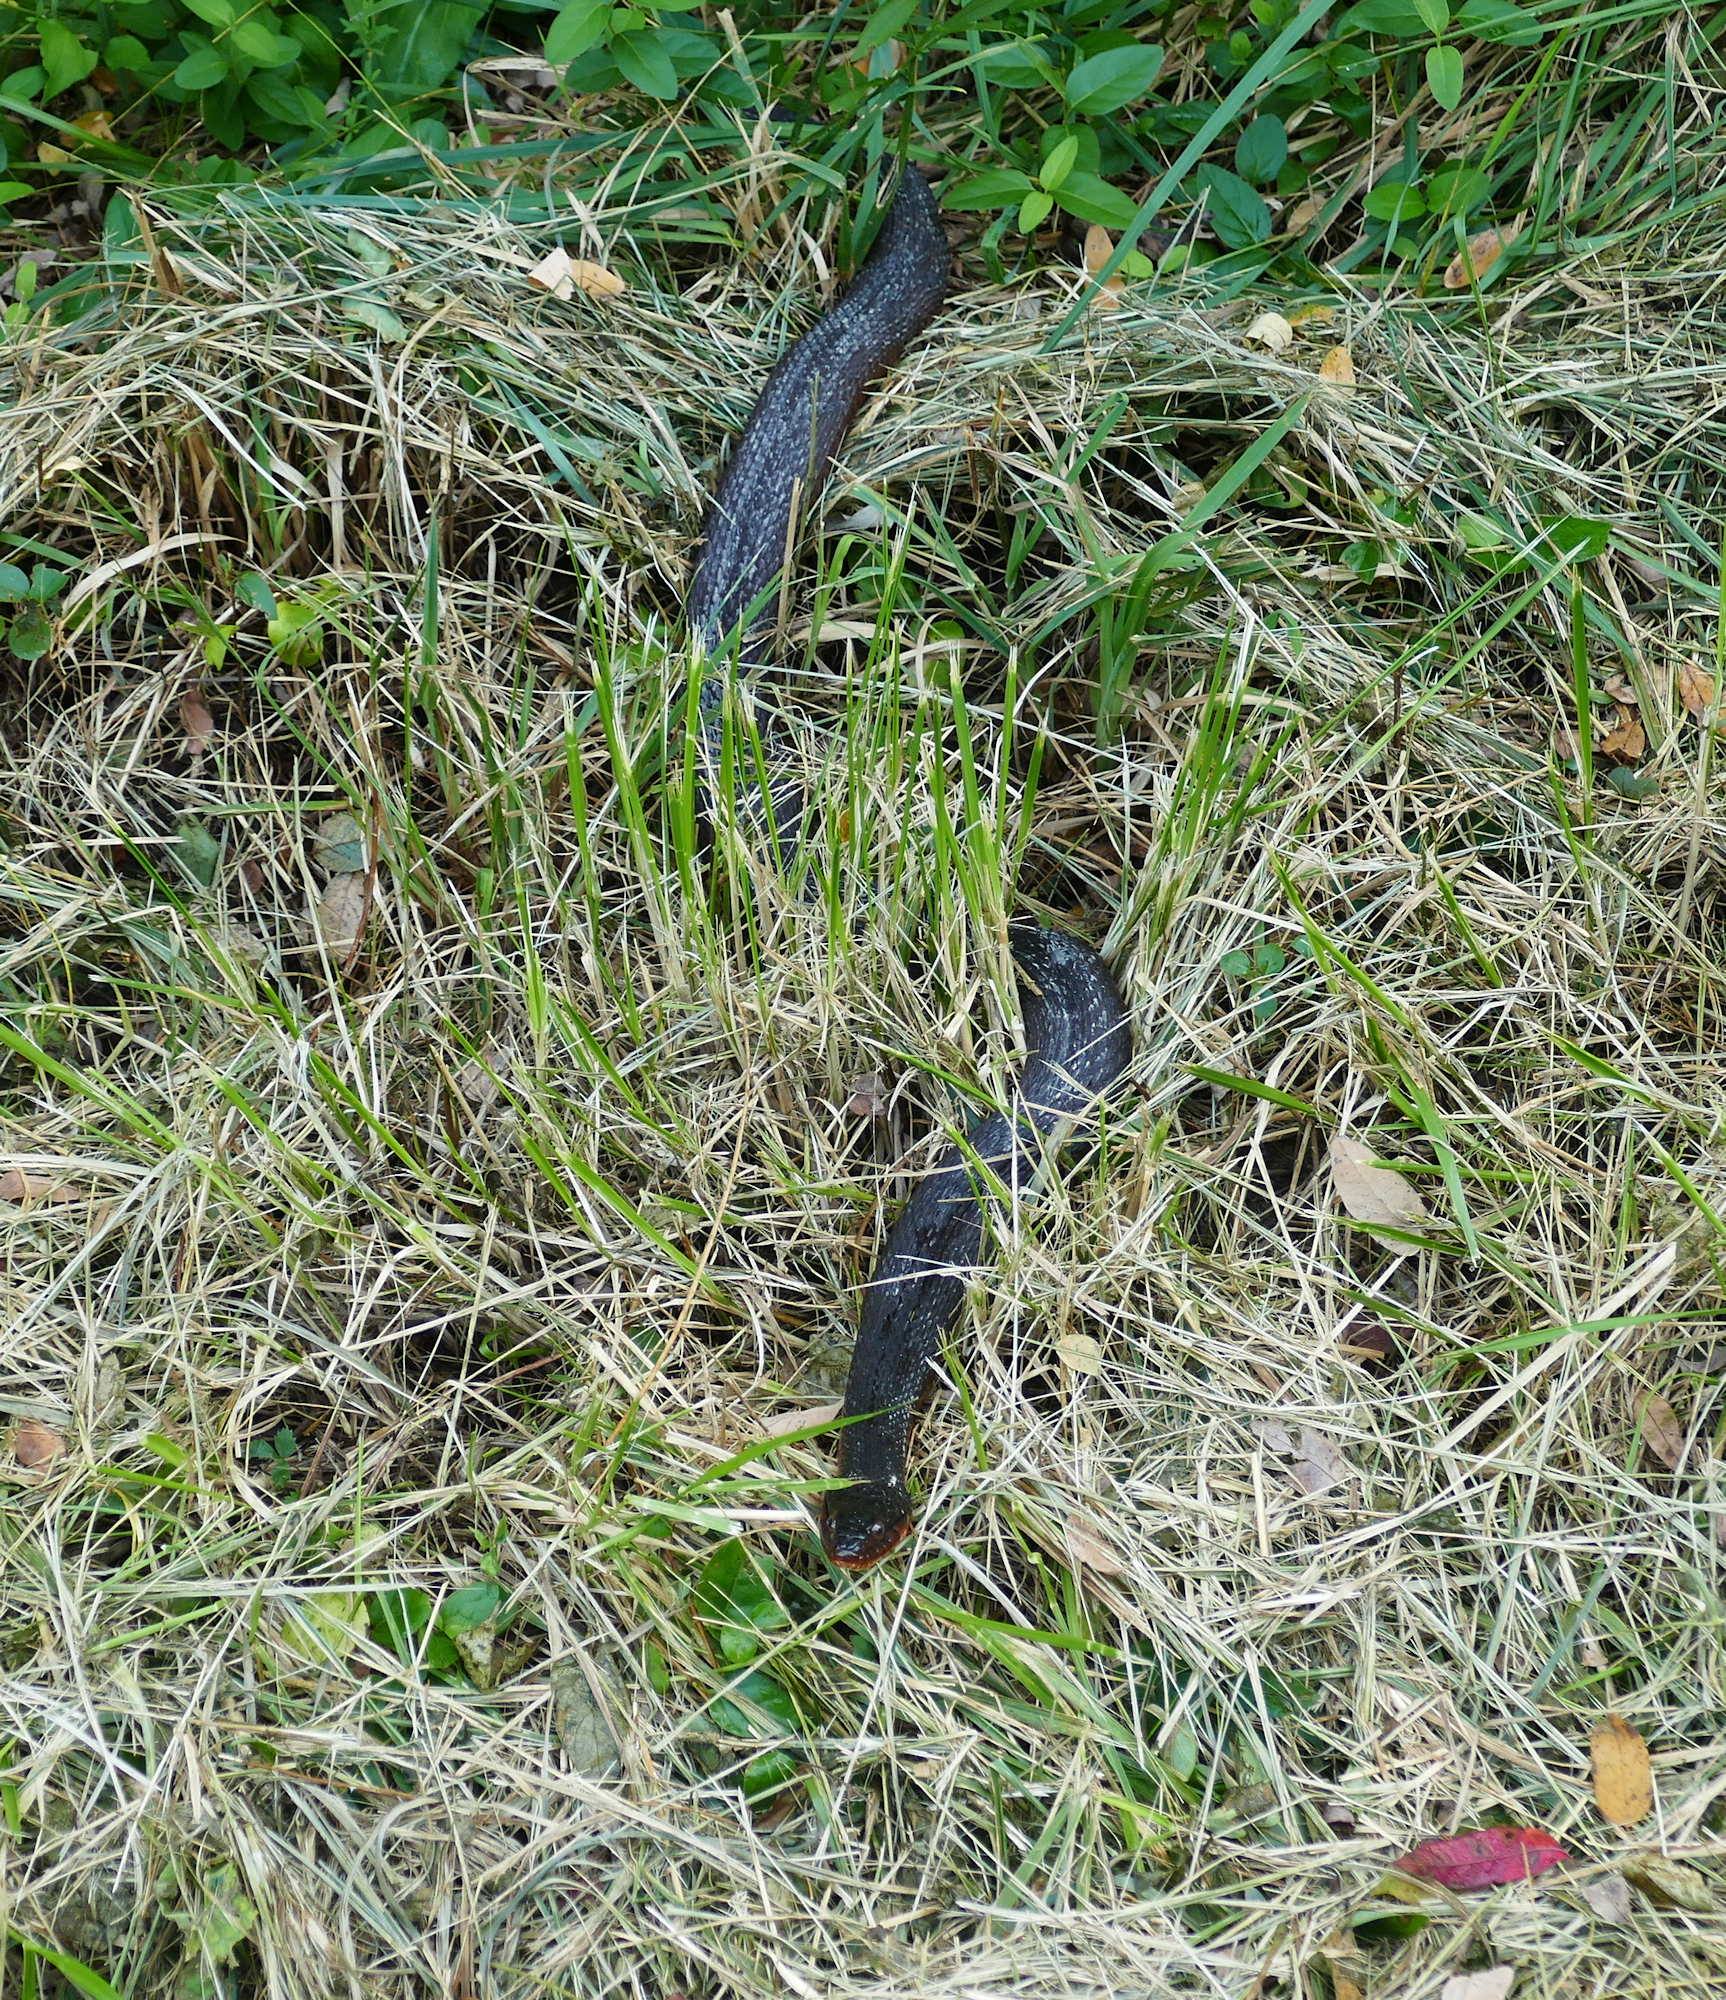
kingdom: Animalia
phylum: Chordata
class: Squamata
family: Colubridae
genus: Nerodia
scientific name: Nerodia erythrogaster
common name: Plainbelly water snake
